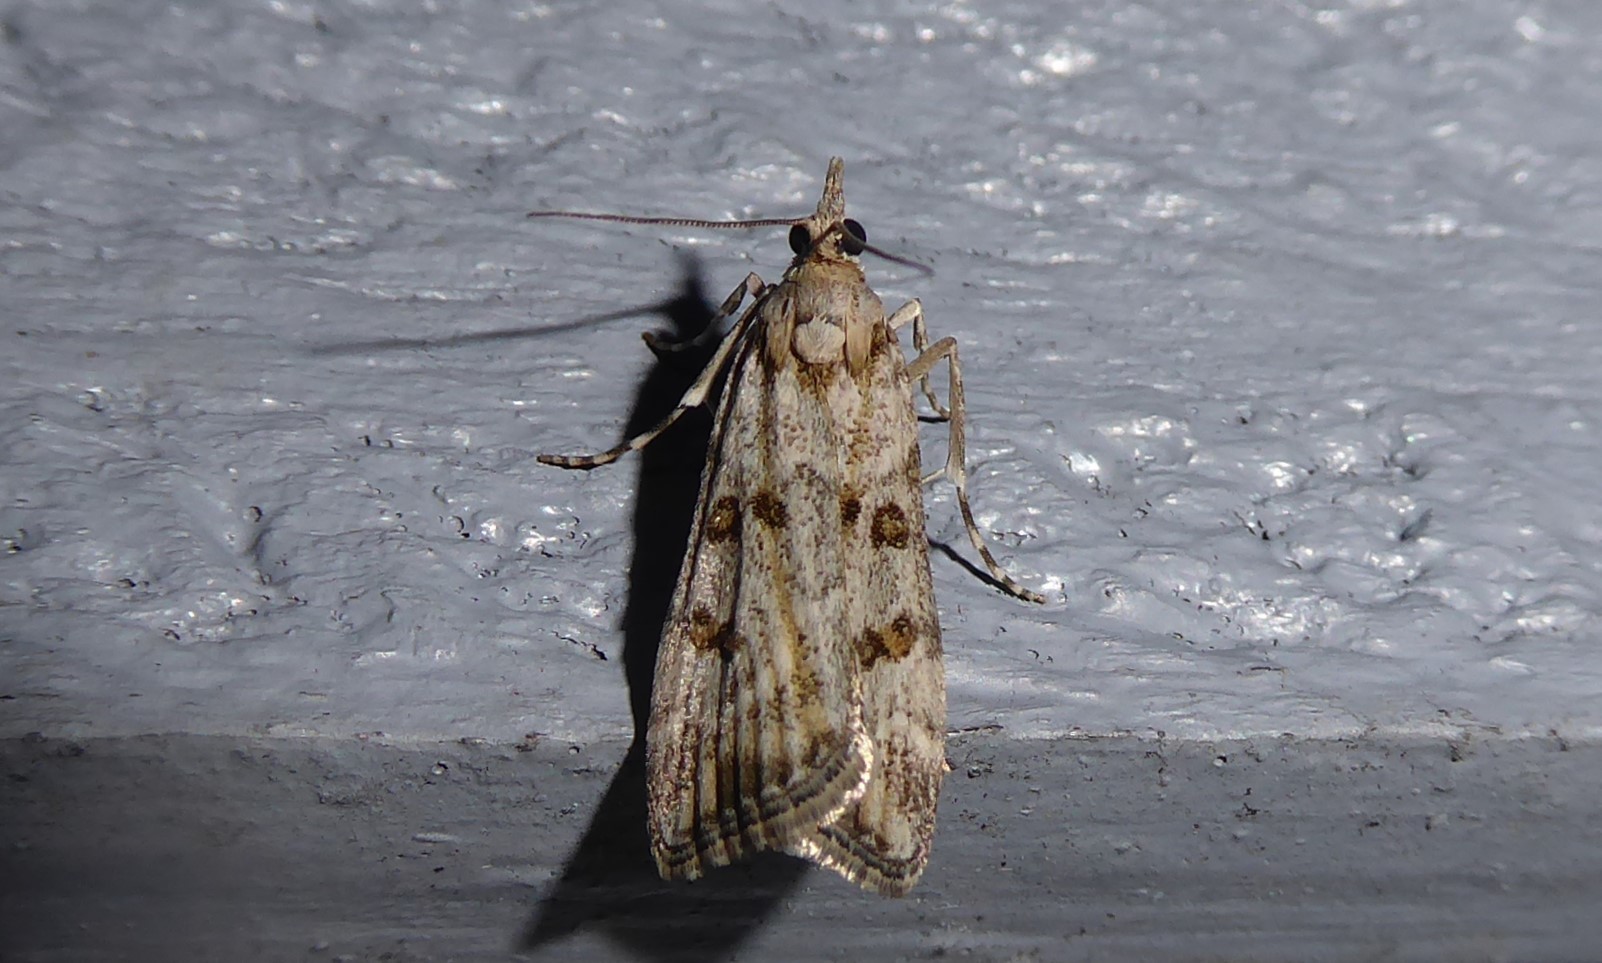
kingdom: Animalia
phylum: Arthropoda
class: Insecta
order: Lepidoptera
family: Crambidae
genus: Eudonia
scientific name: Eudonia diphtheralis
